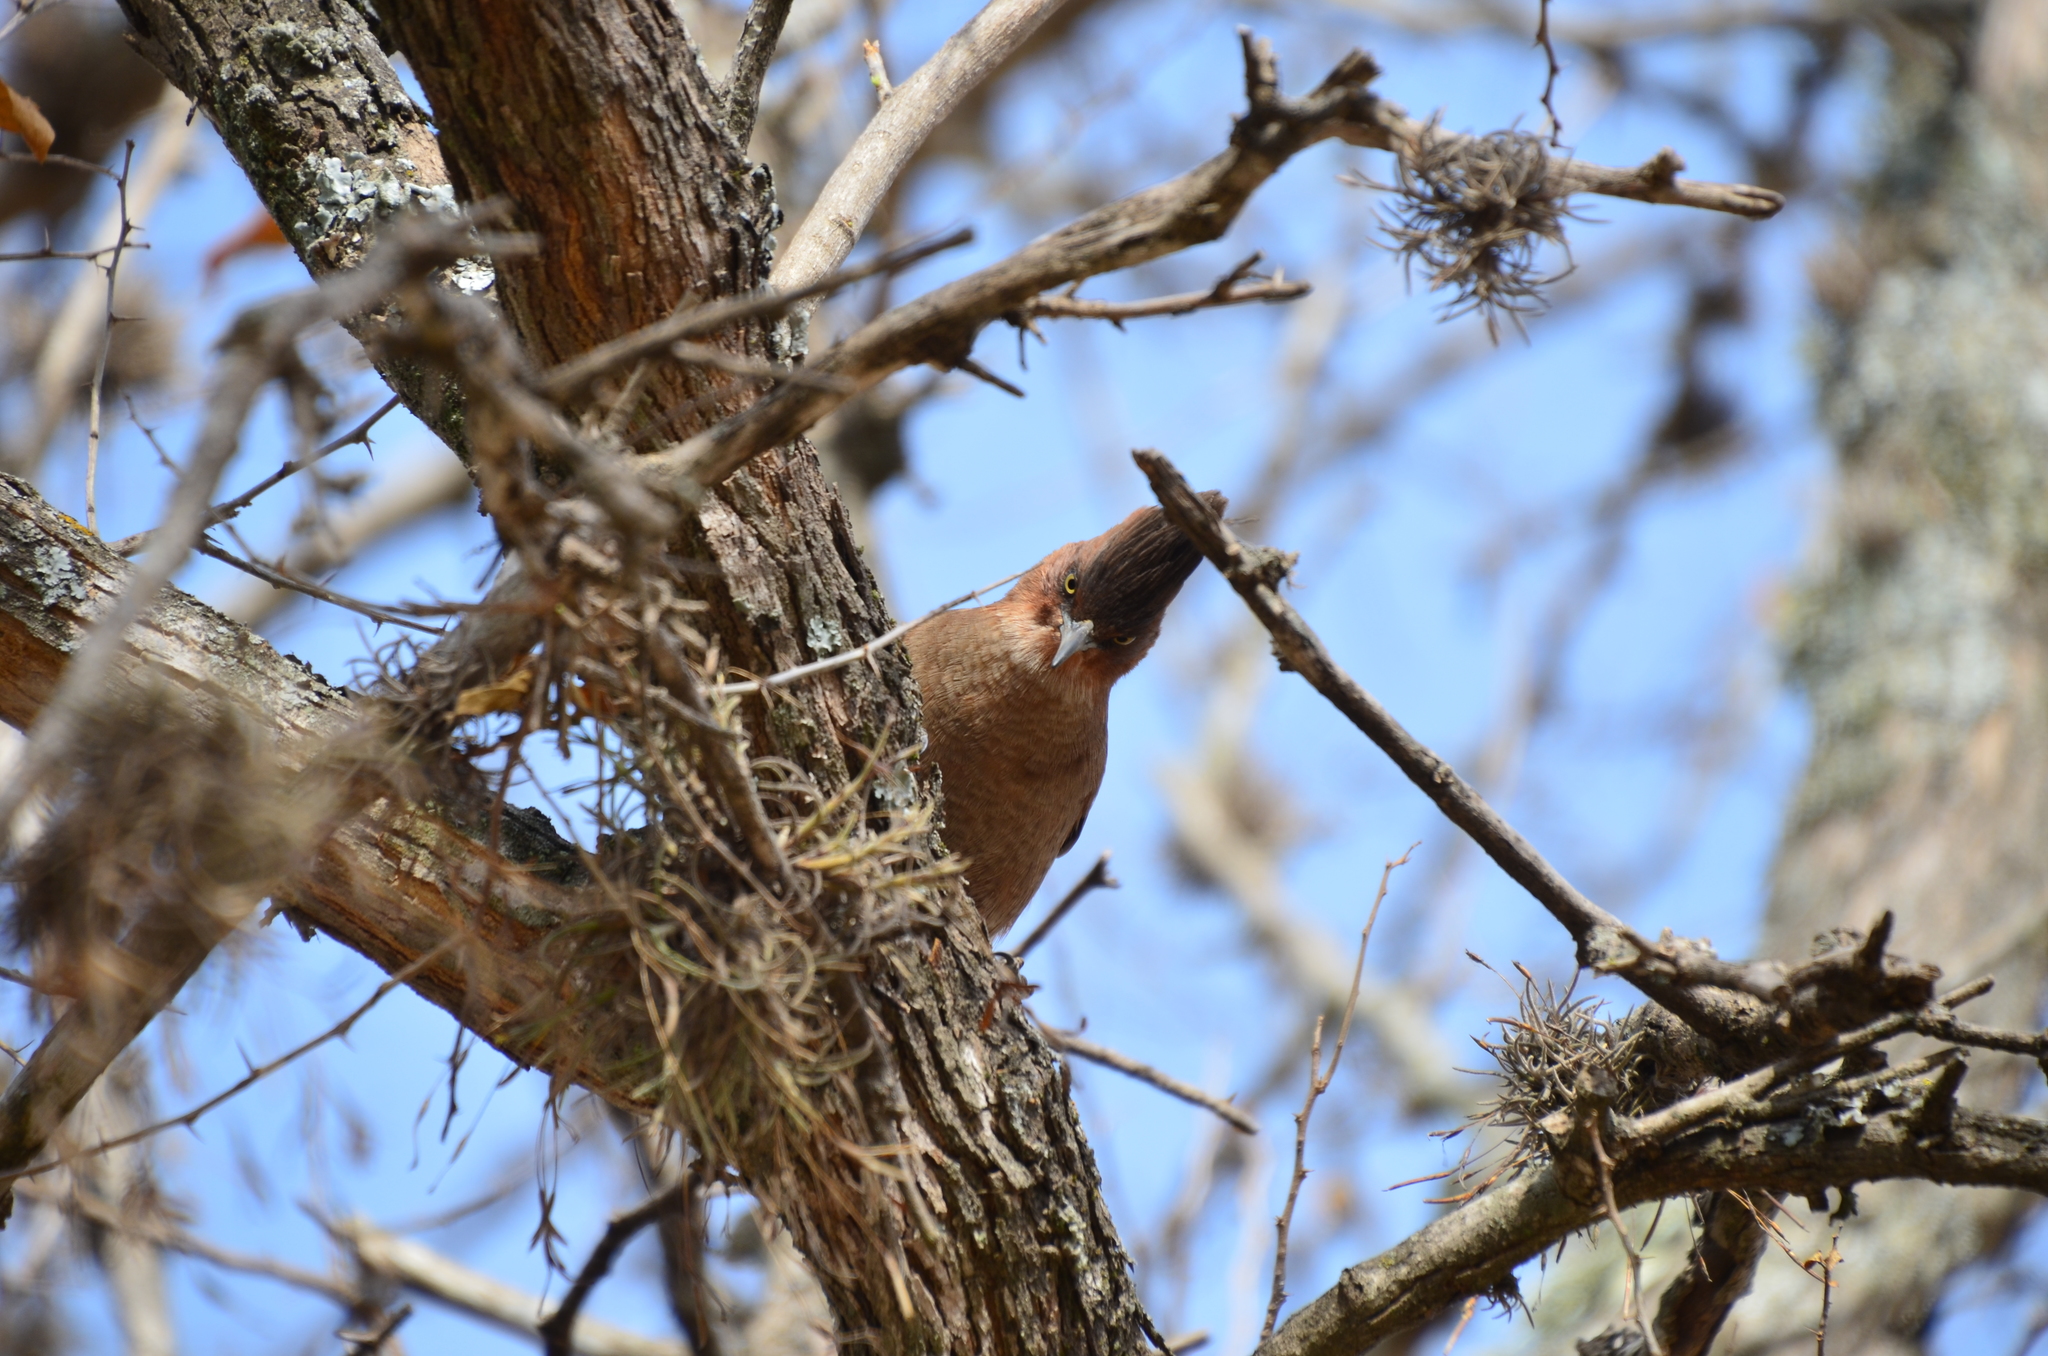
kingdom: Animalia
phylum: Chordata
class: Aves
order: Passeriformes
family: Furnariidae
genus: Pseudoseisura
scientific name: Pseudoseisura lophotes
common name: Brown cacholote
